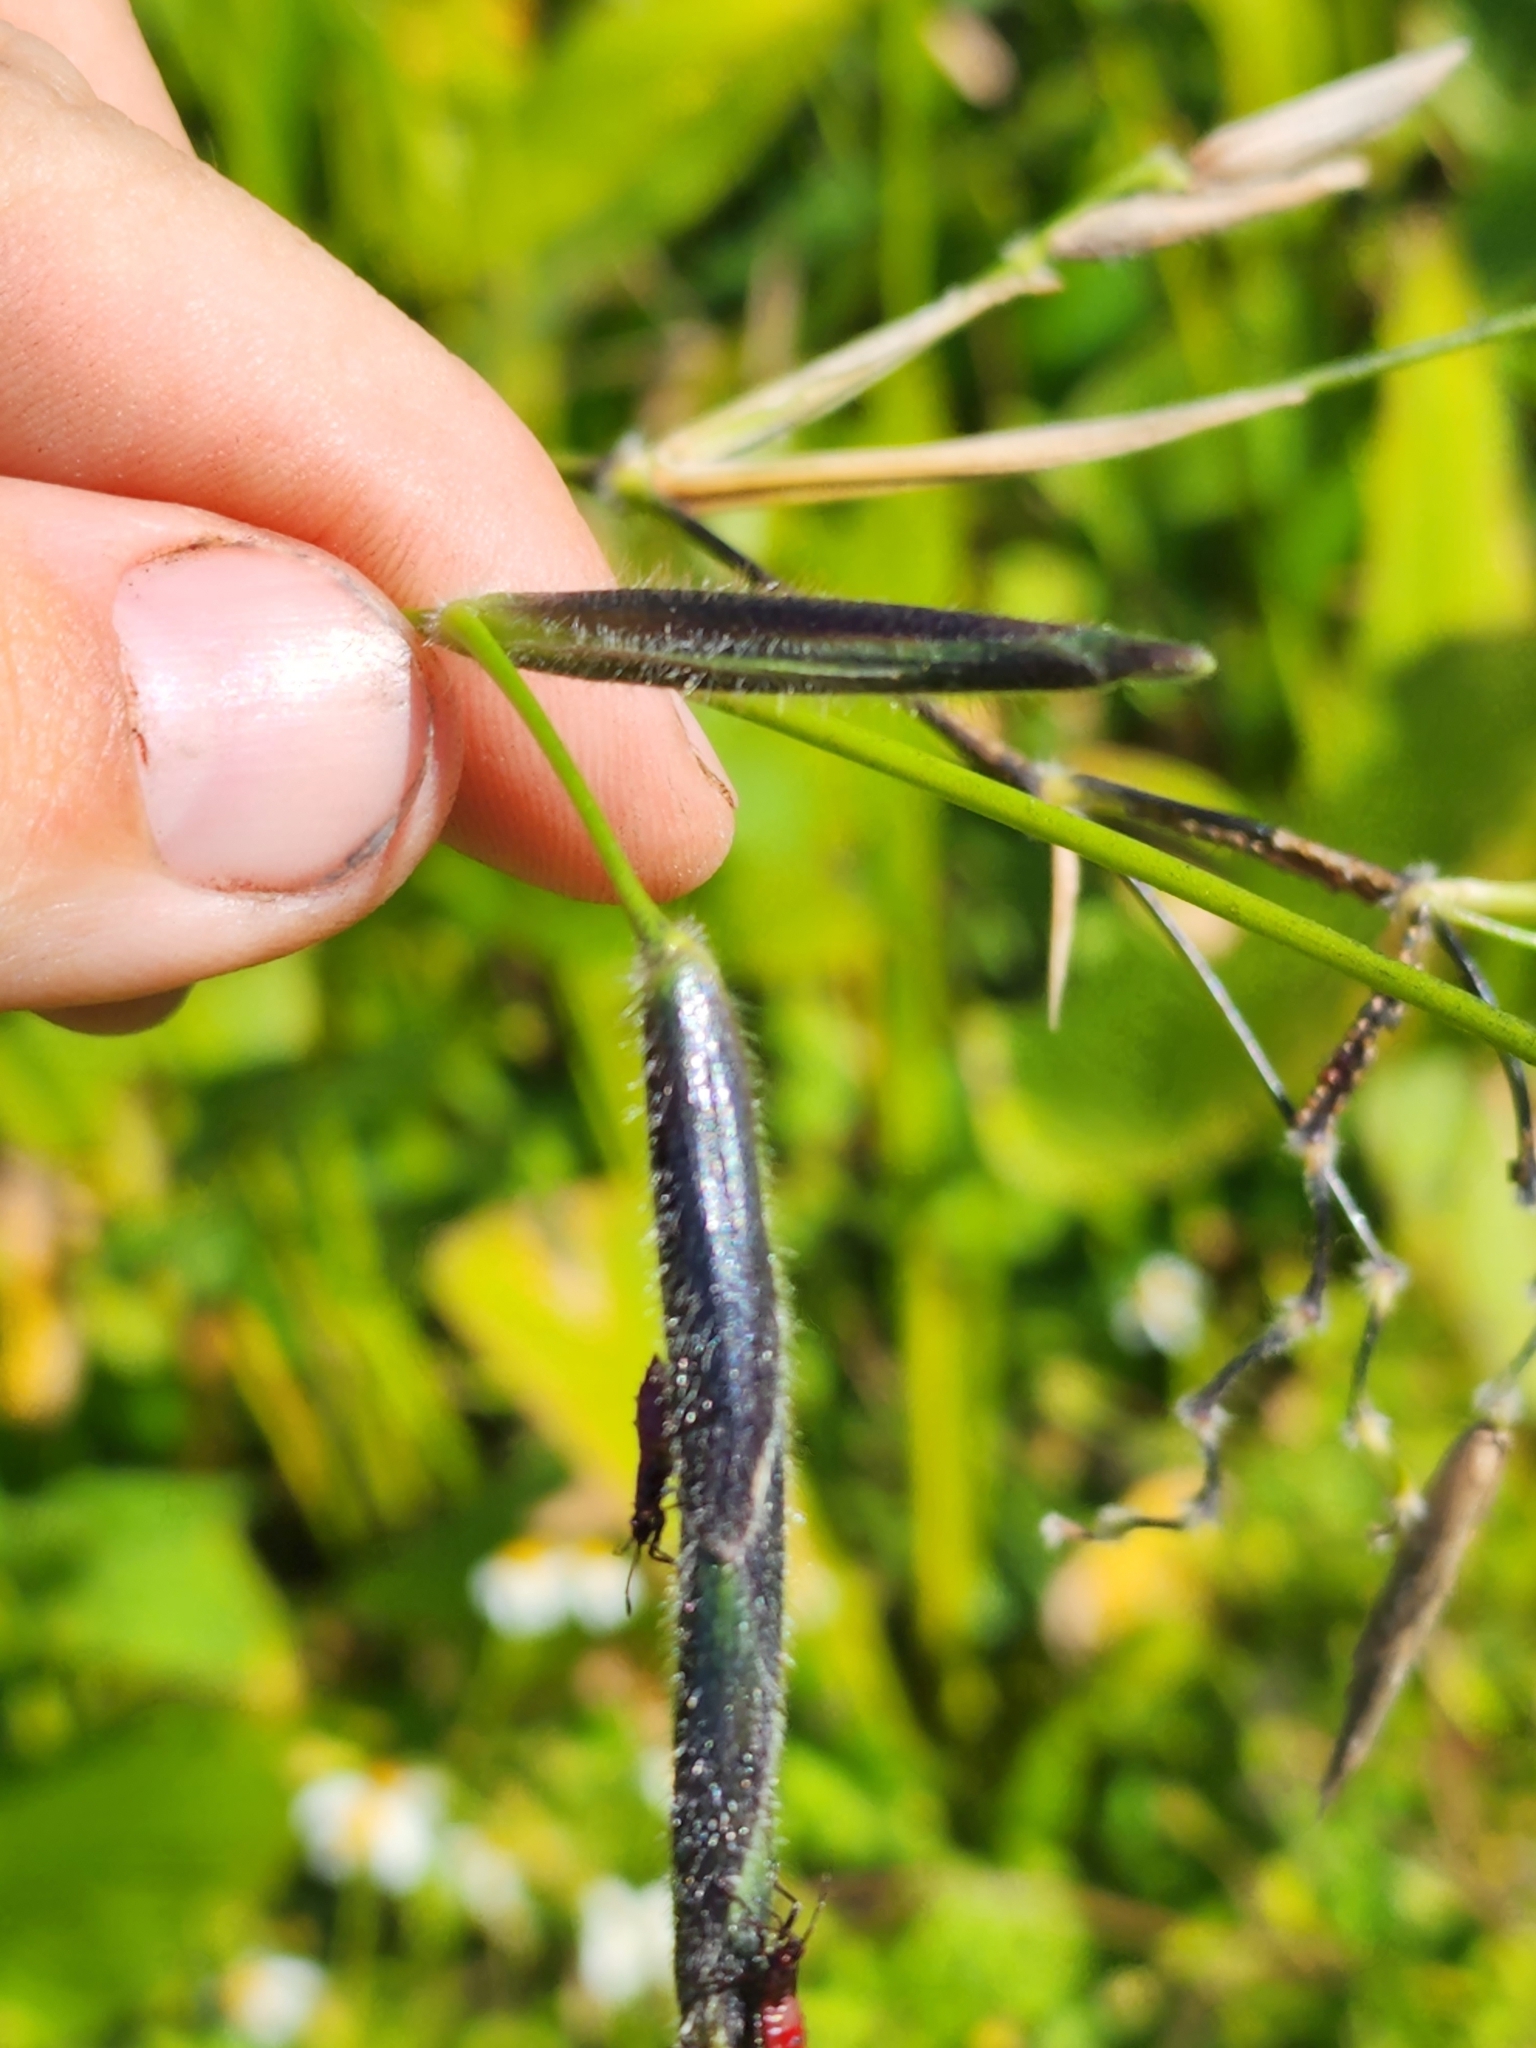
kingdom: Plantae
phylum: Tracheophyta
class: Liliopsida
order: Zingiberales
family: Marantaceae
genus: Thalia
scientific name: Thalia geniculata
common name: Arrowroot
